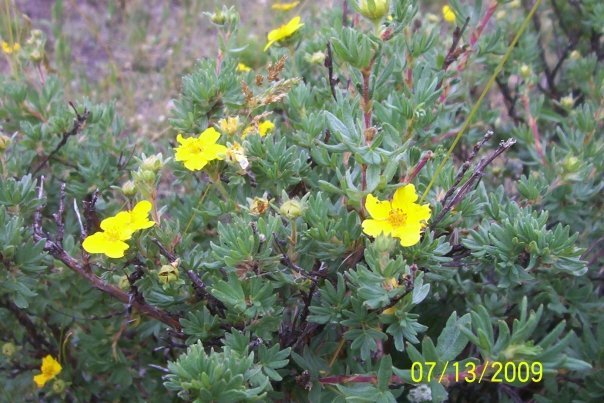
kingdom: Plantae
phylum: Tracheophyta
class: Magnoliopsida
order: Rosales
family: Rosaceae
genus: Dasiphora
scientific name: Dasiphora fruticosa
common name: Shrubby cinquefoil
